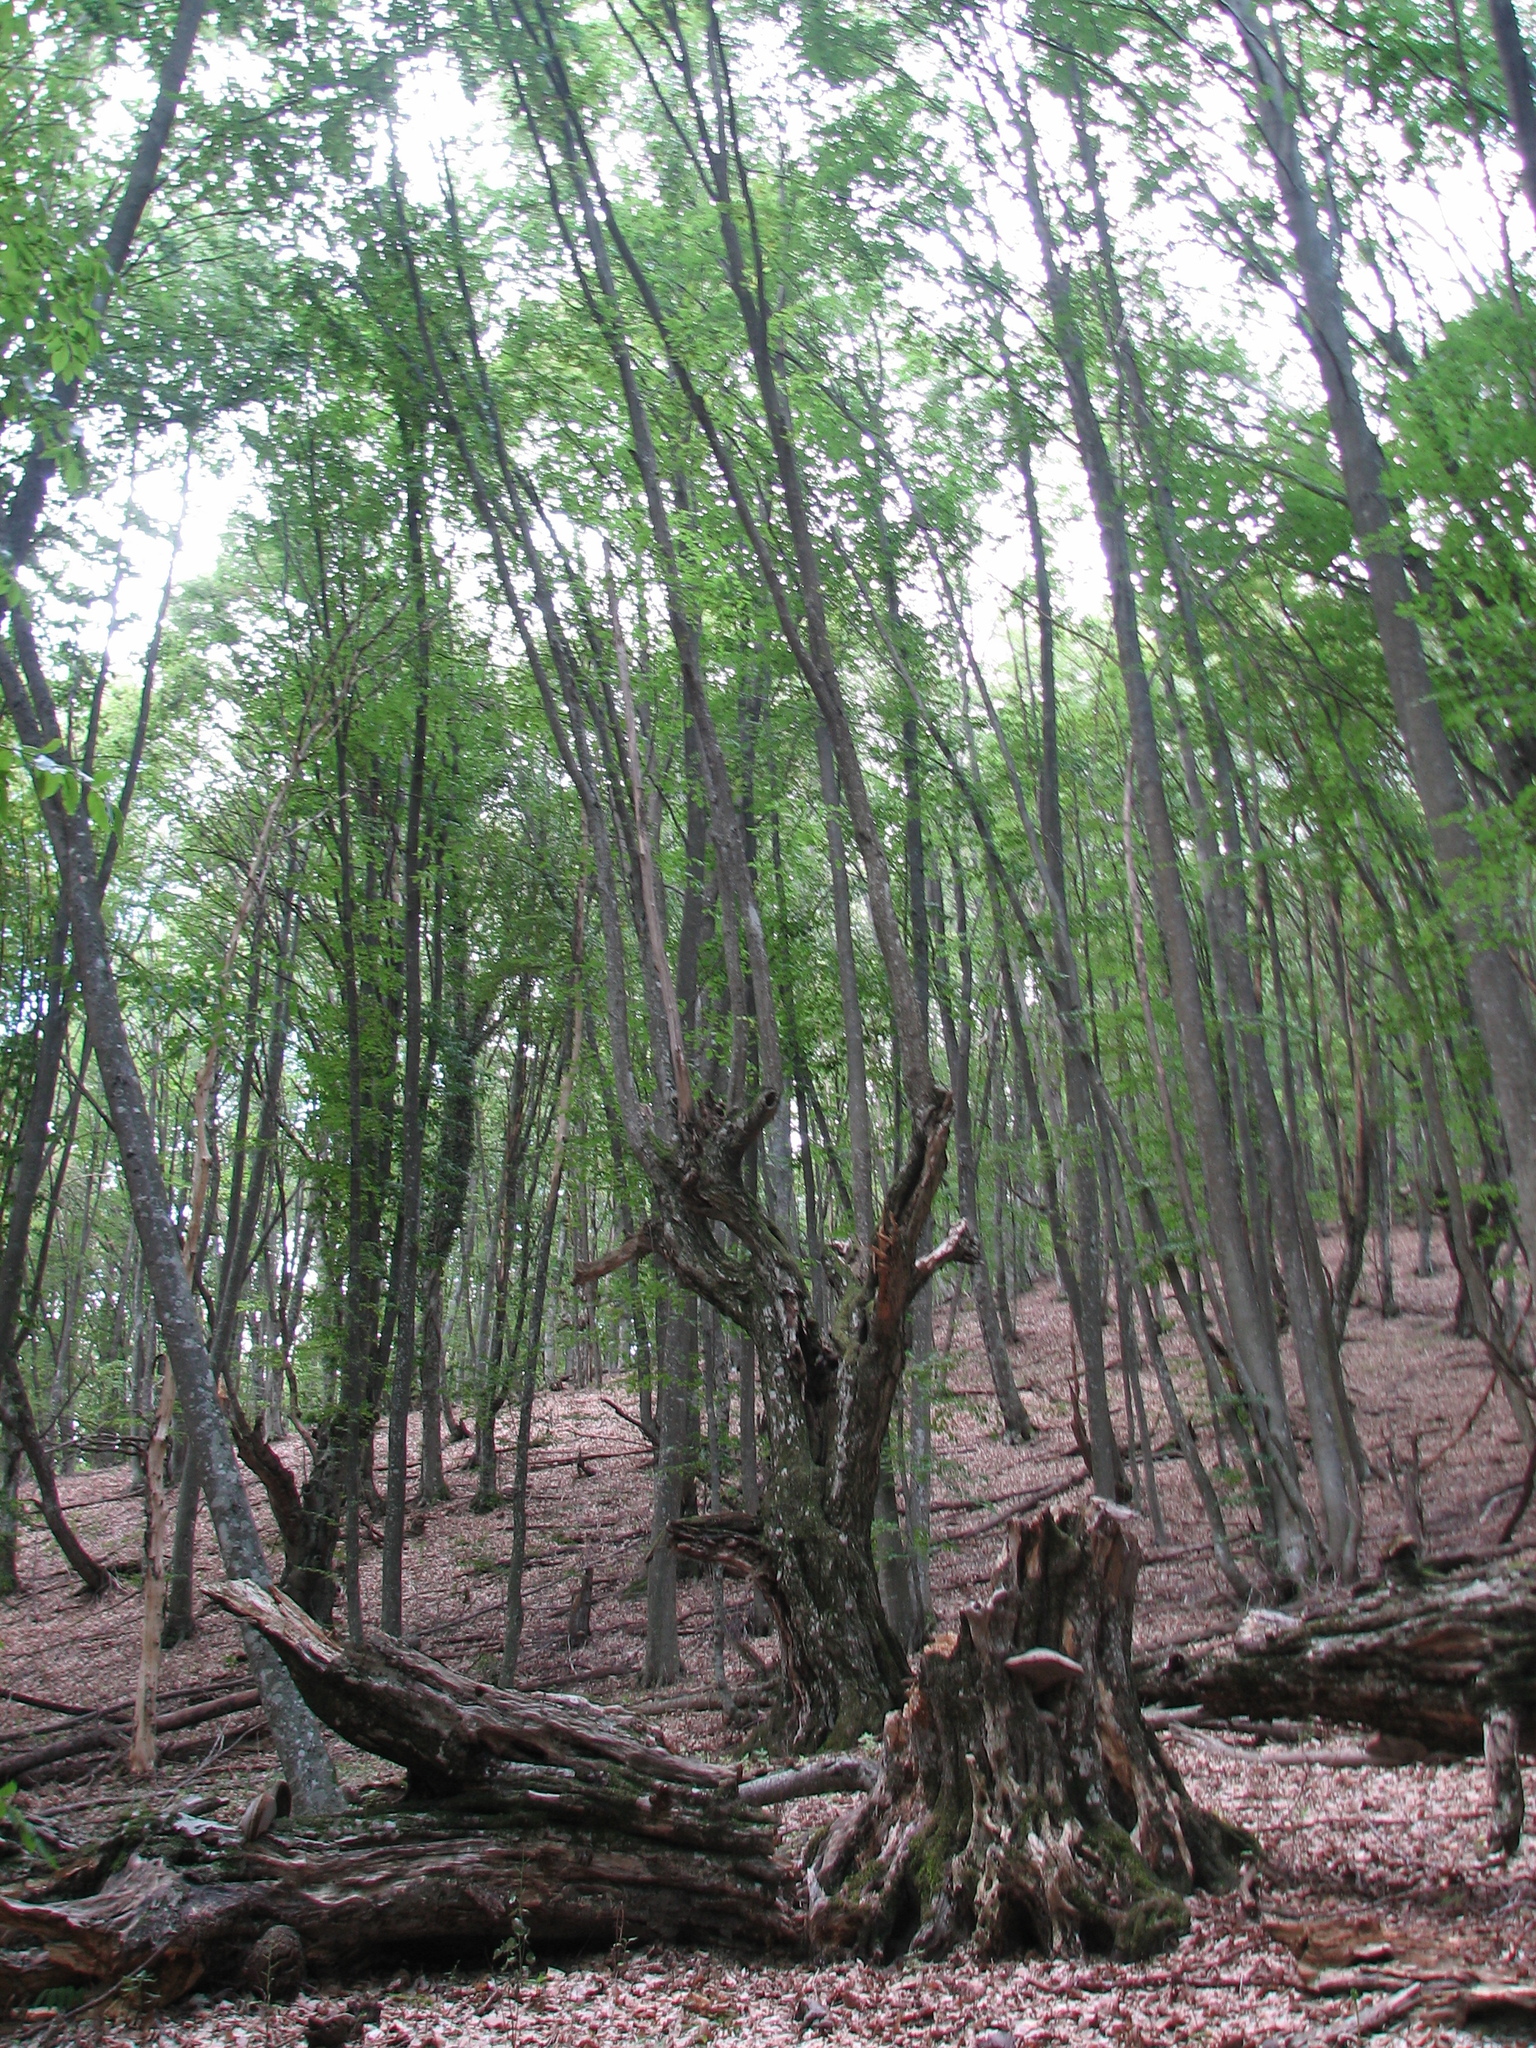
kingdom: Plantae
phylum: Tracheophyta
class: Magnoliopsida
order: Fagales
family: Fagaceae
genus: Fagus
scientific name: Fagus taurica
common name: Crimean beech
